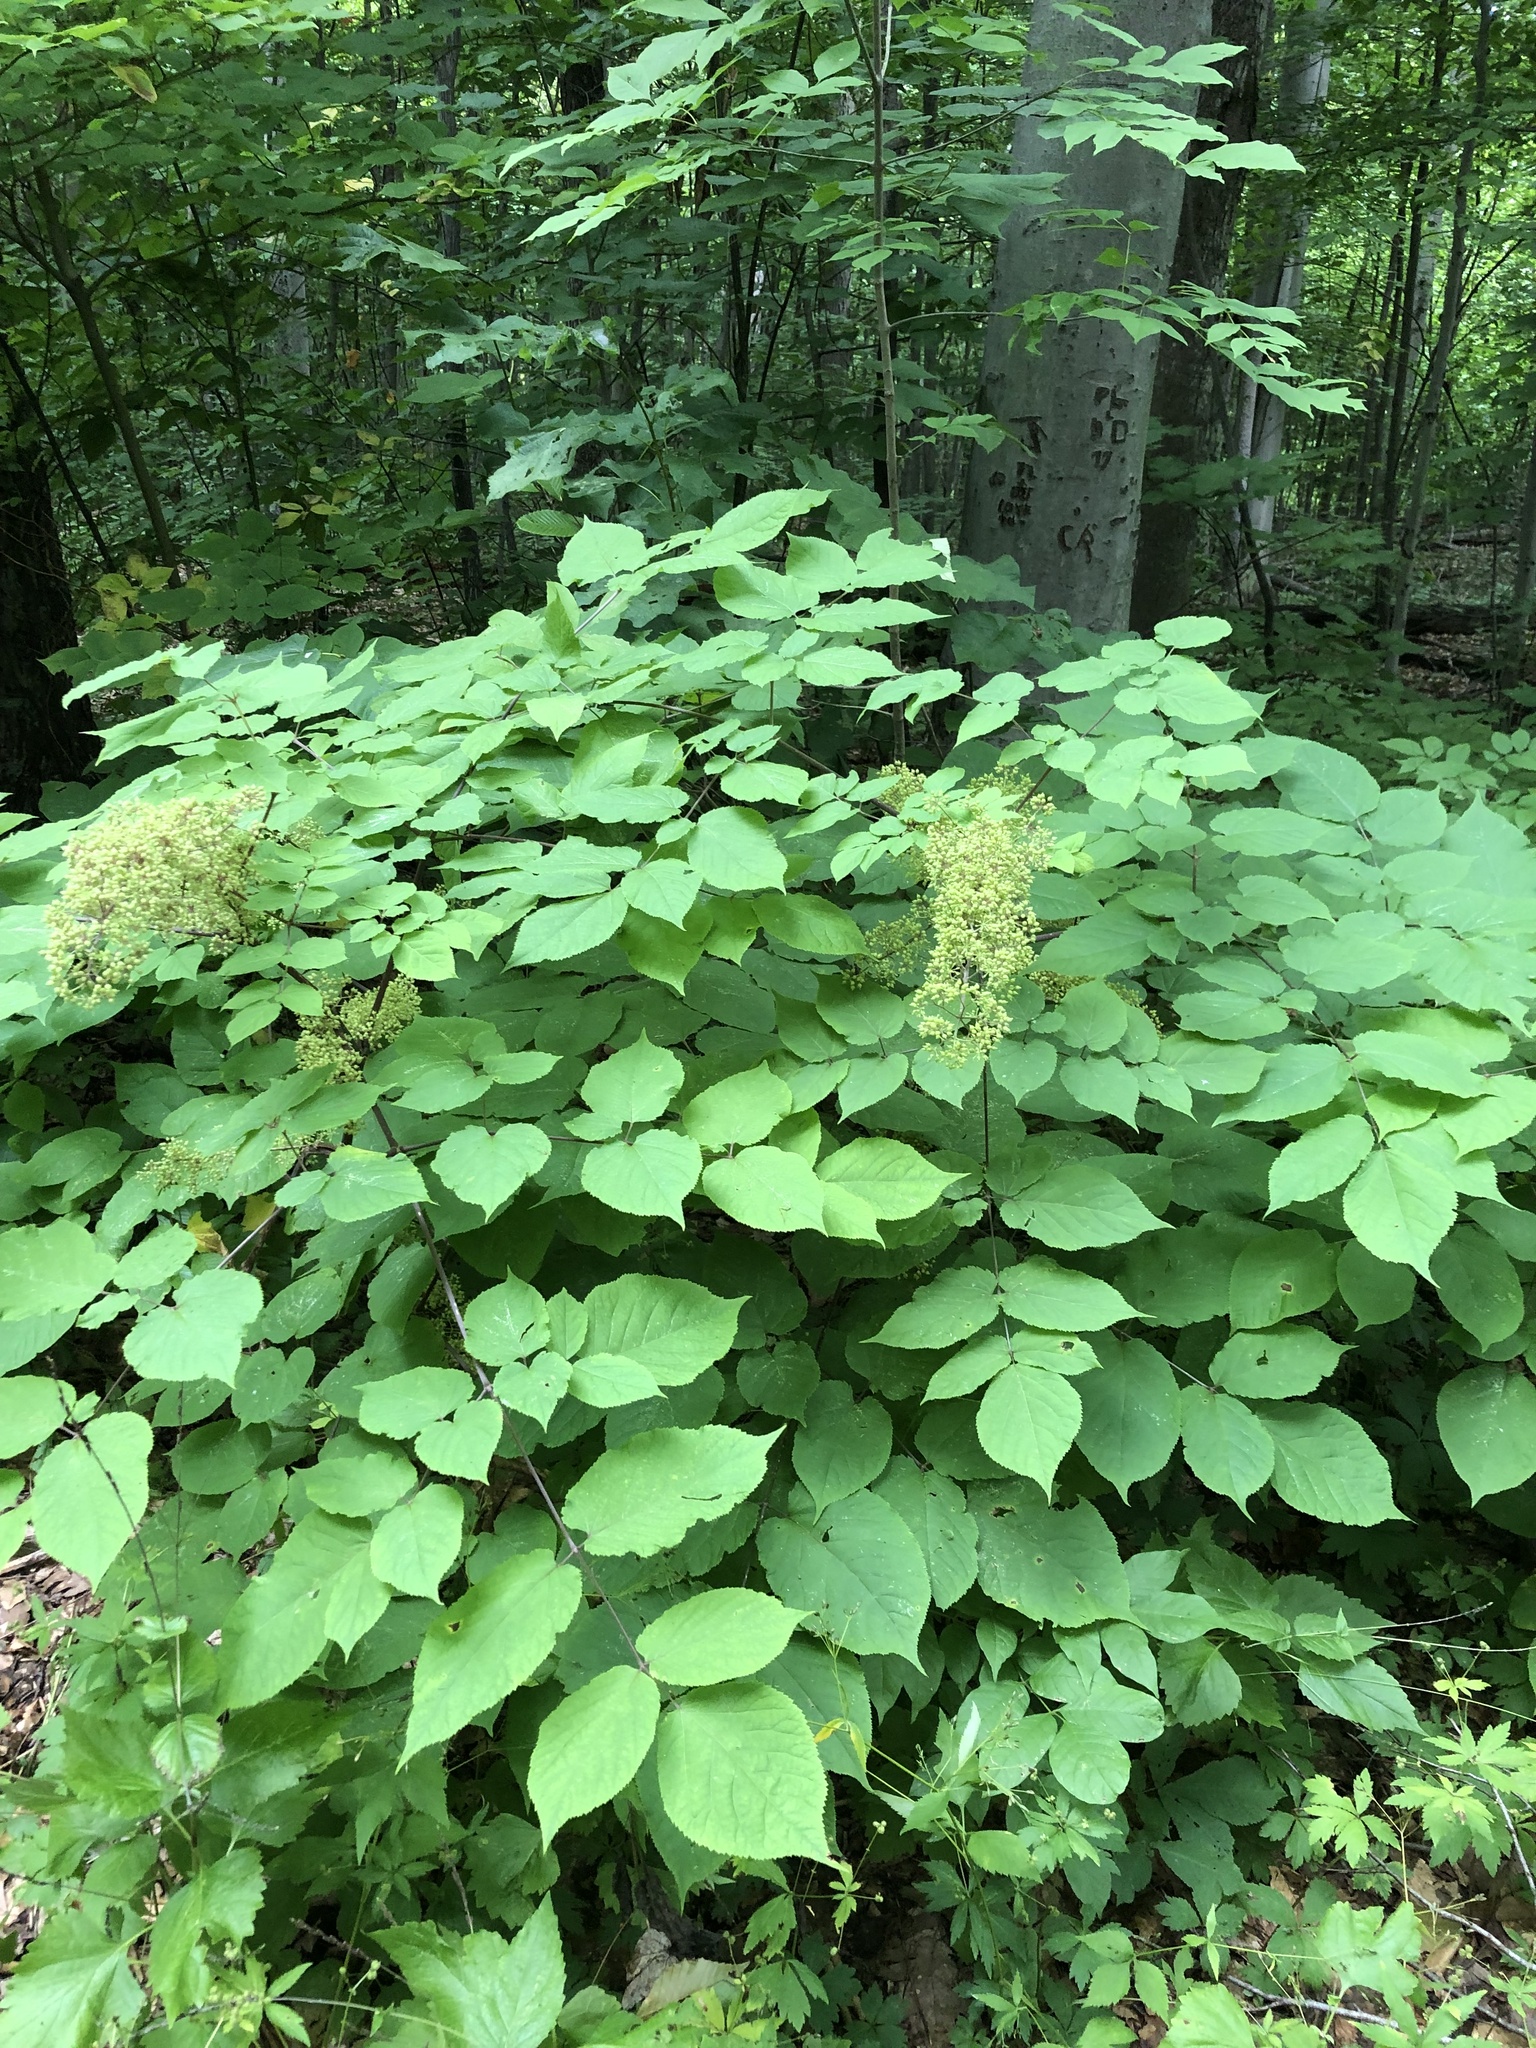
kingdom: Plantae
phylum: Tracheophyta
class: Magnoliopsida
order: Apiales
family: Araliaceae
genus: Aralia
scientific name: Aralia racemosa
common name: American-spikenard
